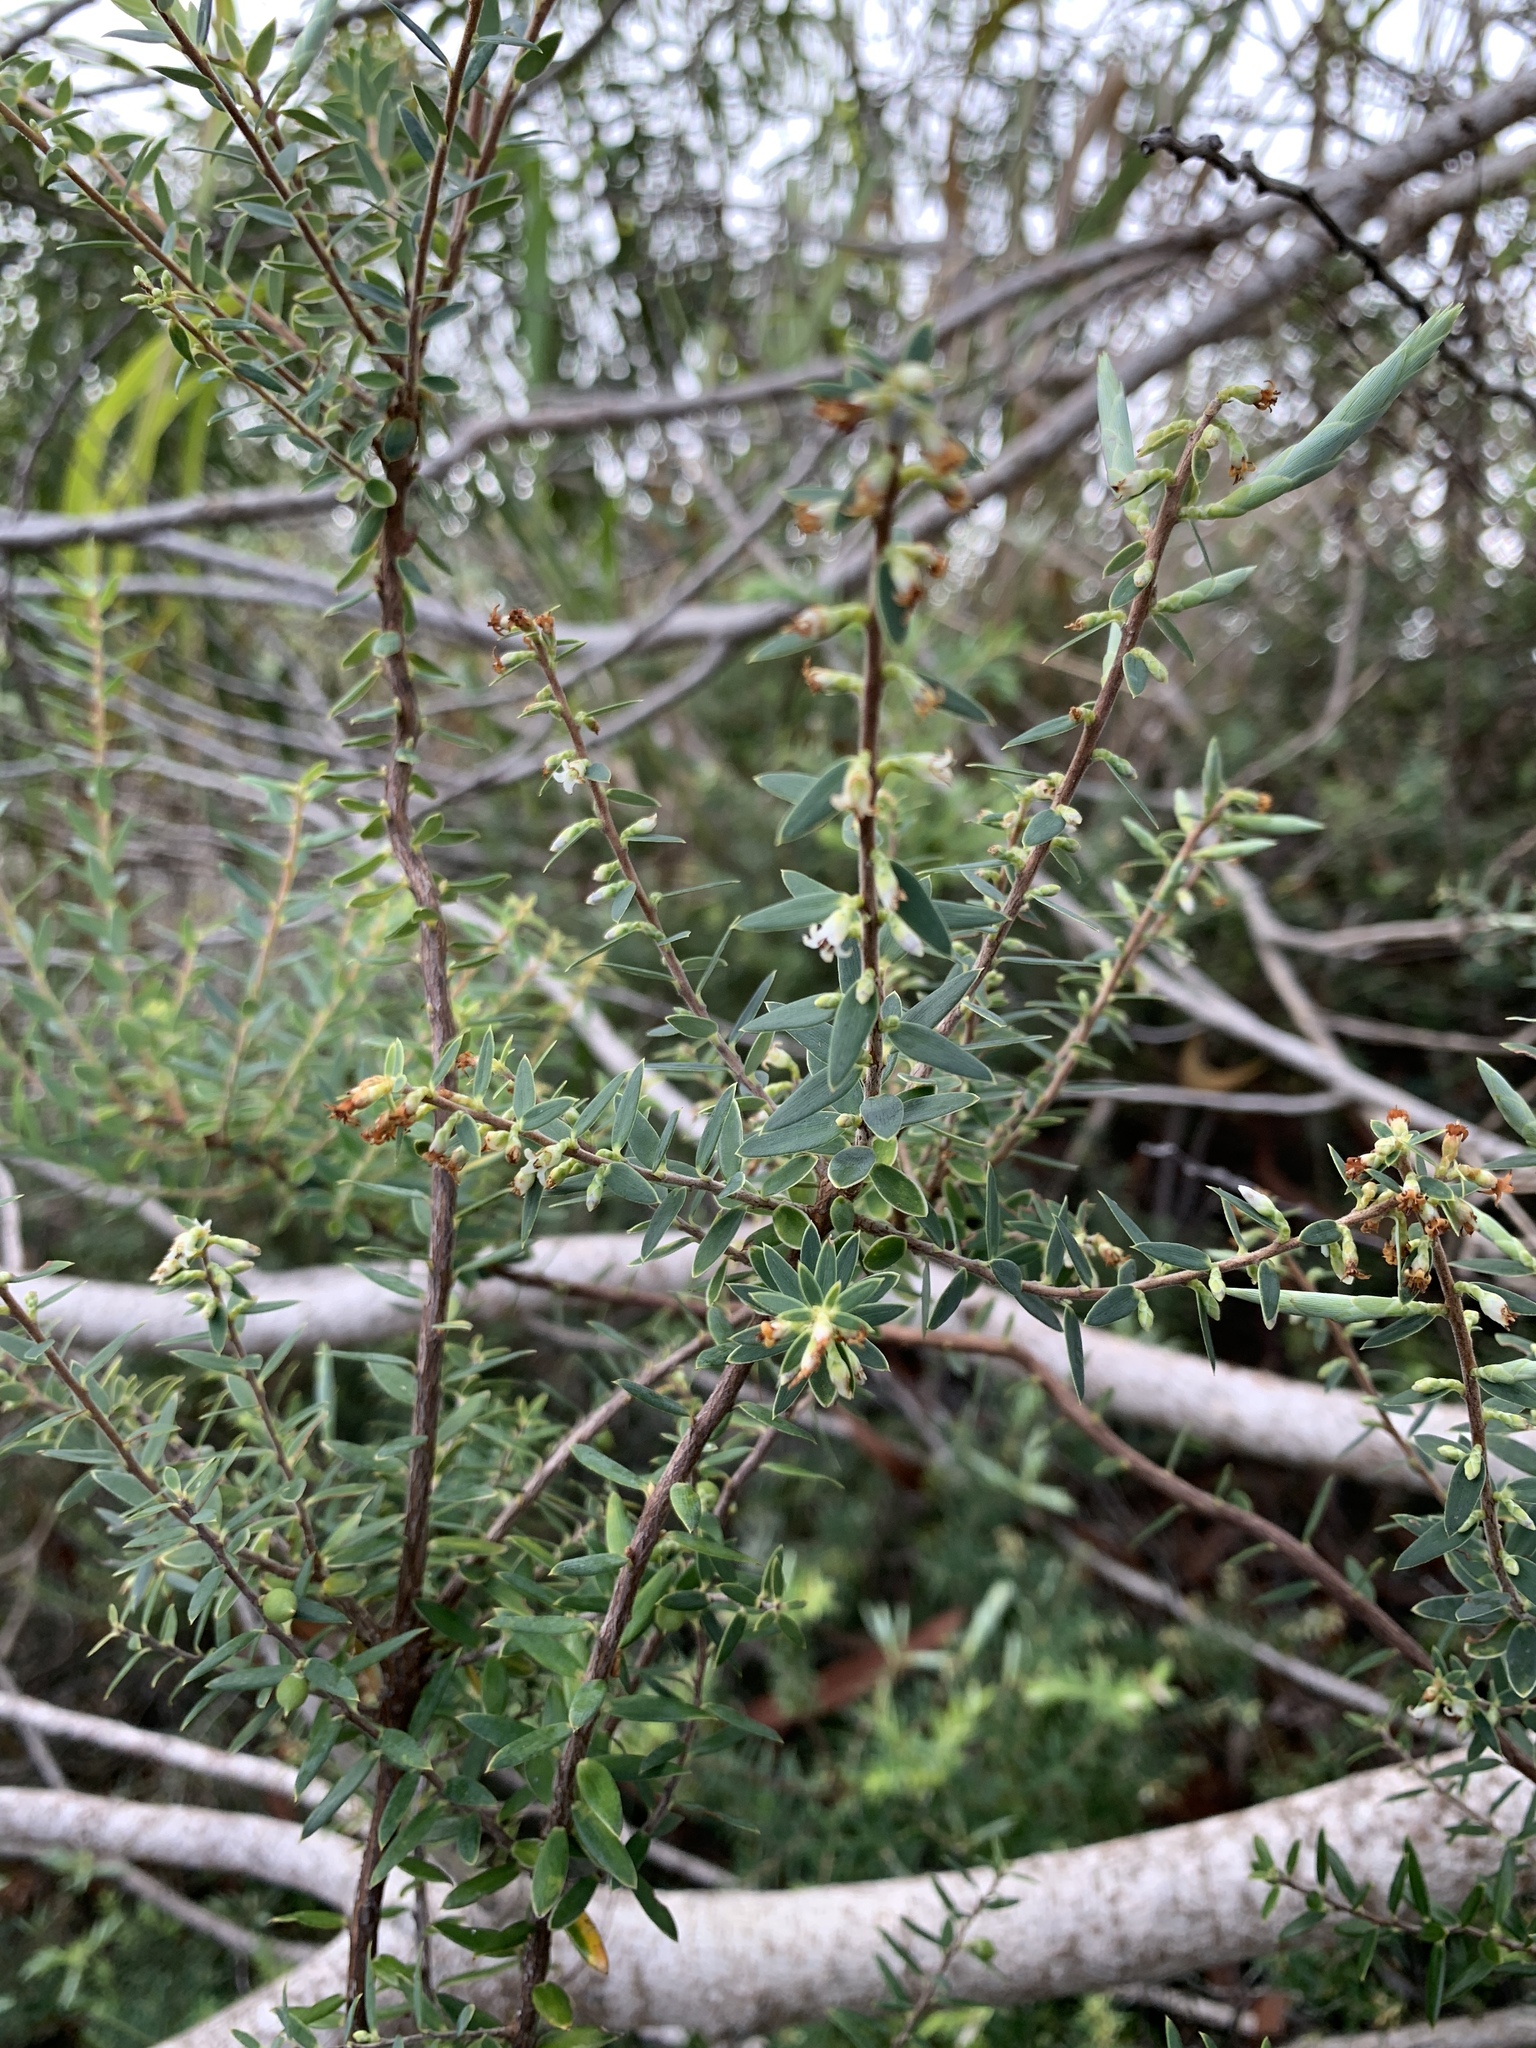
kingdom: Plantae
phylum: Tracheophyta
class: Magnoliopsida
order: Ericales
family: Ericaceae
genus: Leptecophylla
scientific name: Leptecophylla tameiameiae
